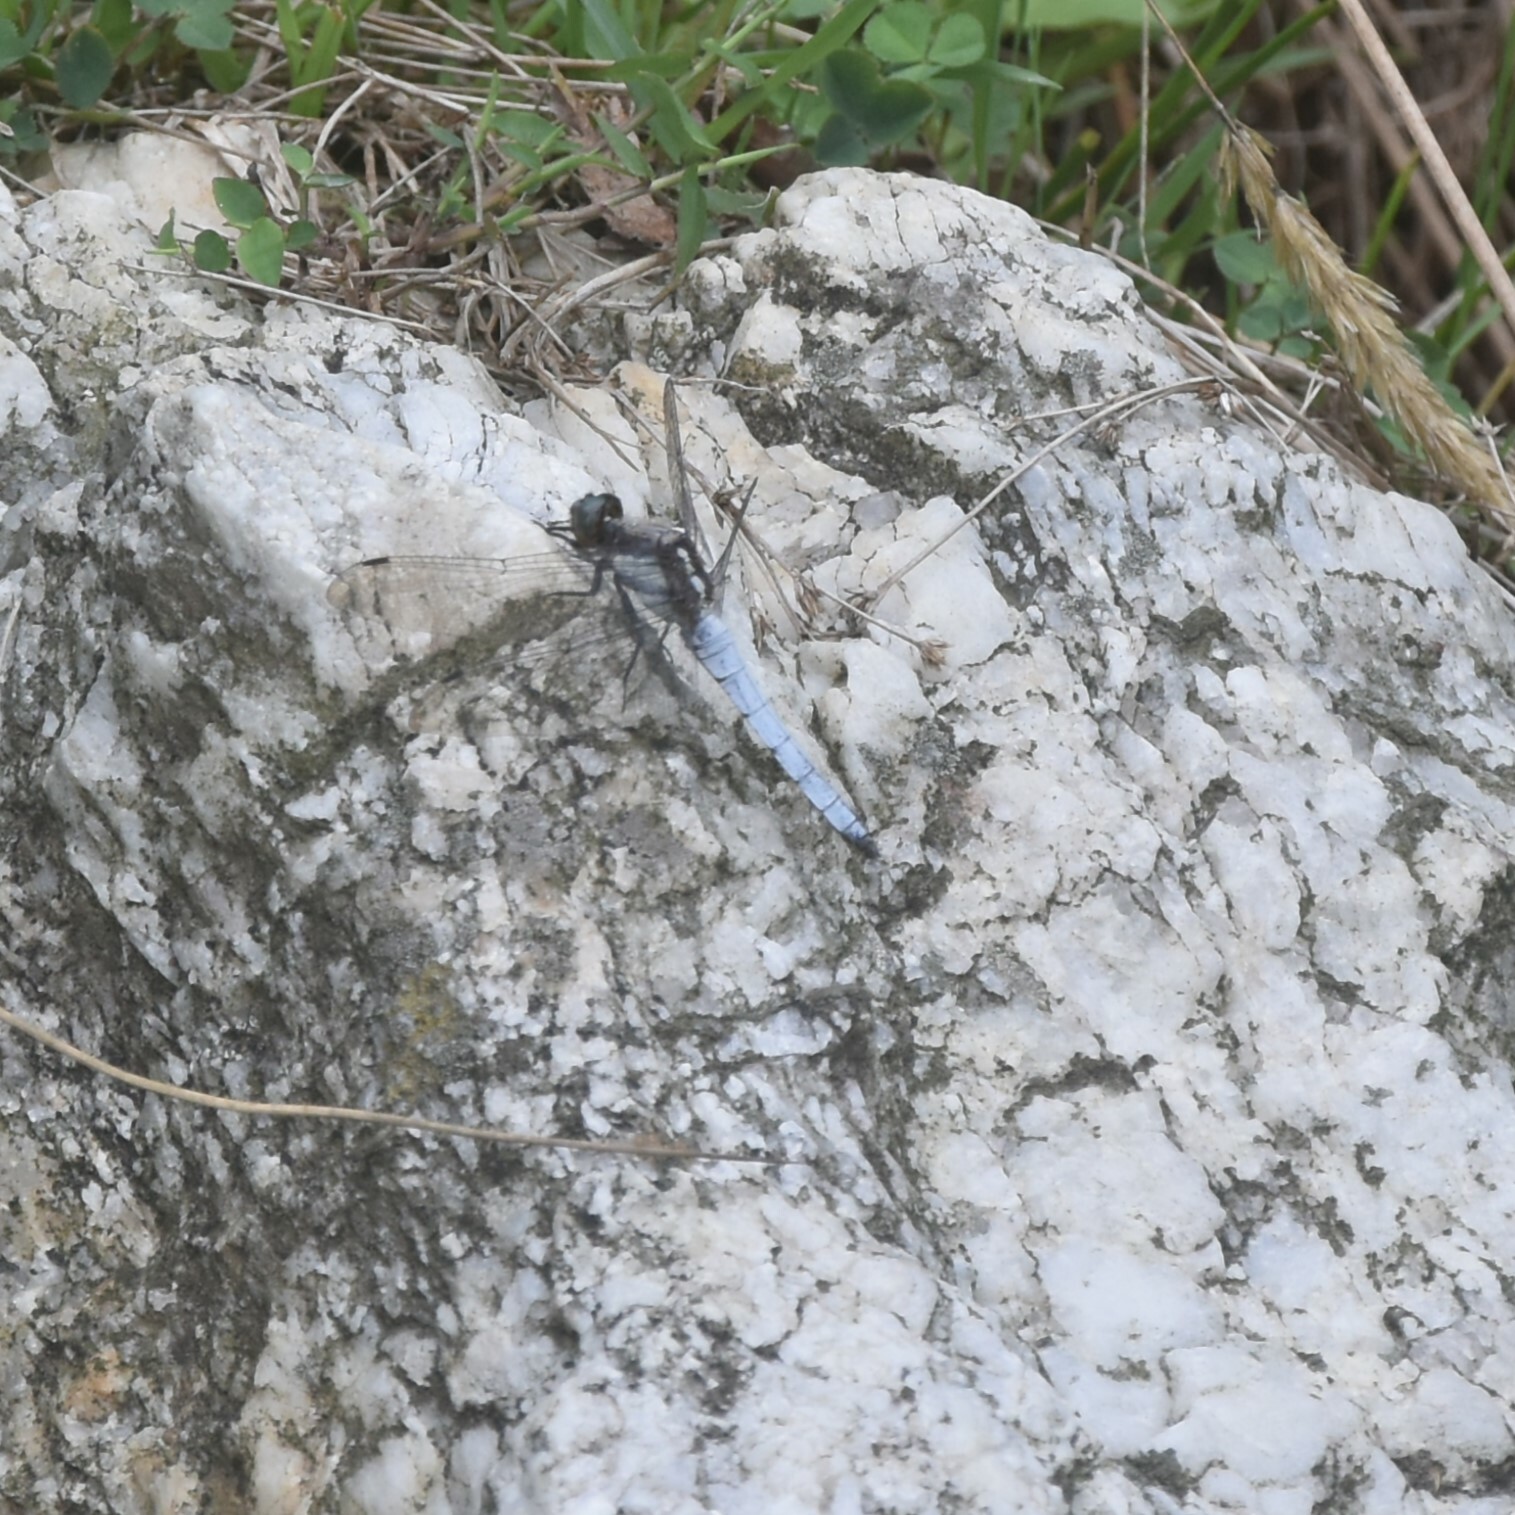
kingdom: Animalia
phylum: Arthropoda
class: Insecta
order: Odonata
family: Libellulidae
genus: Orthetrum
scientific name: Orthetrum internum
